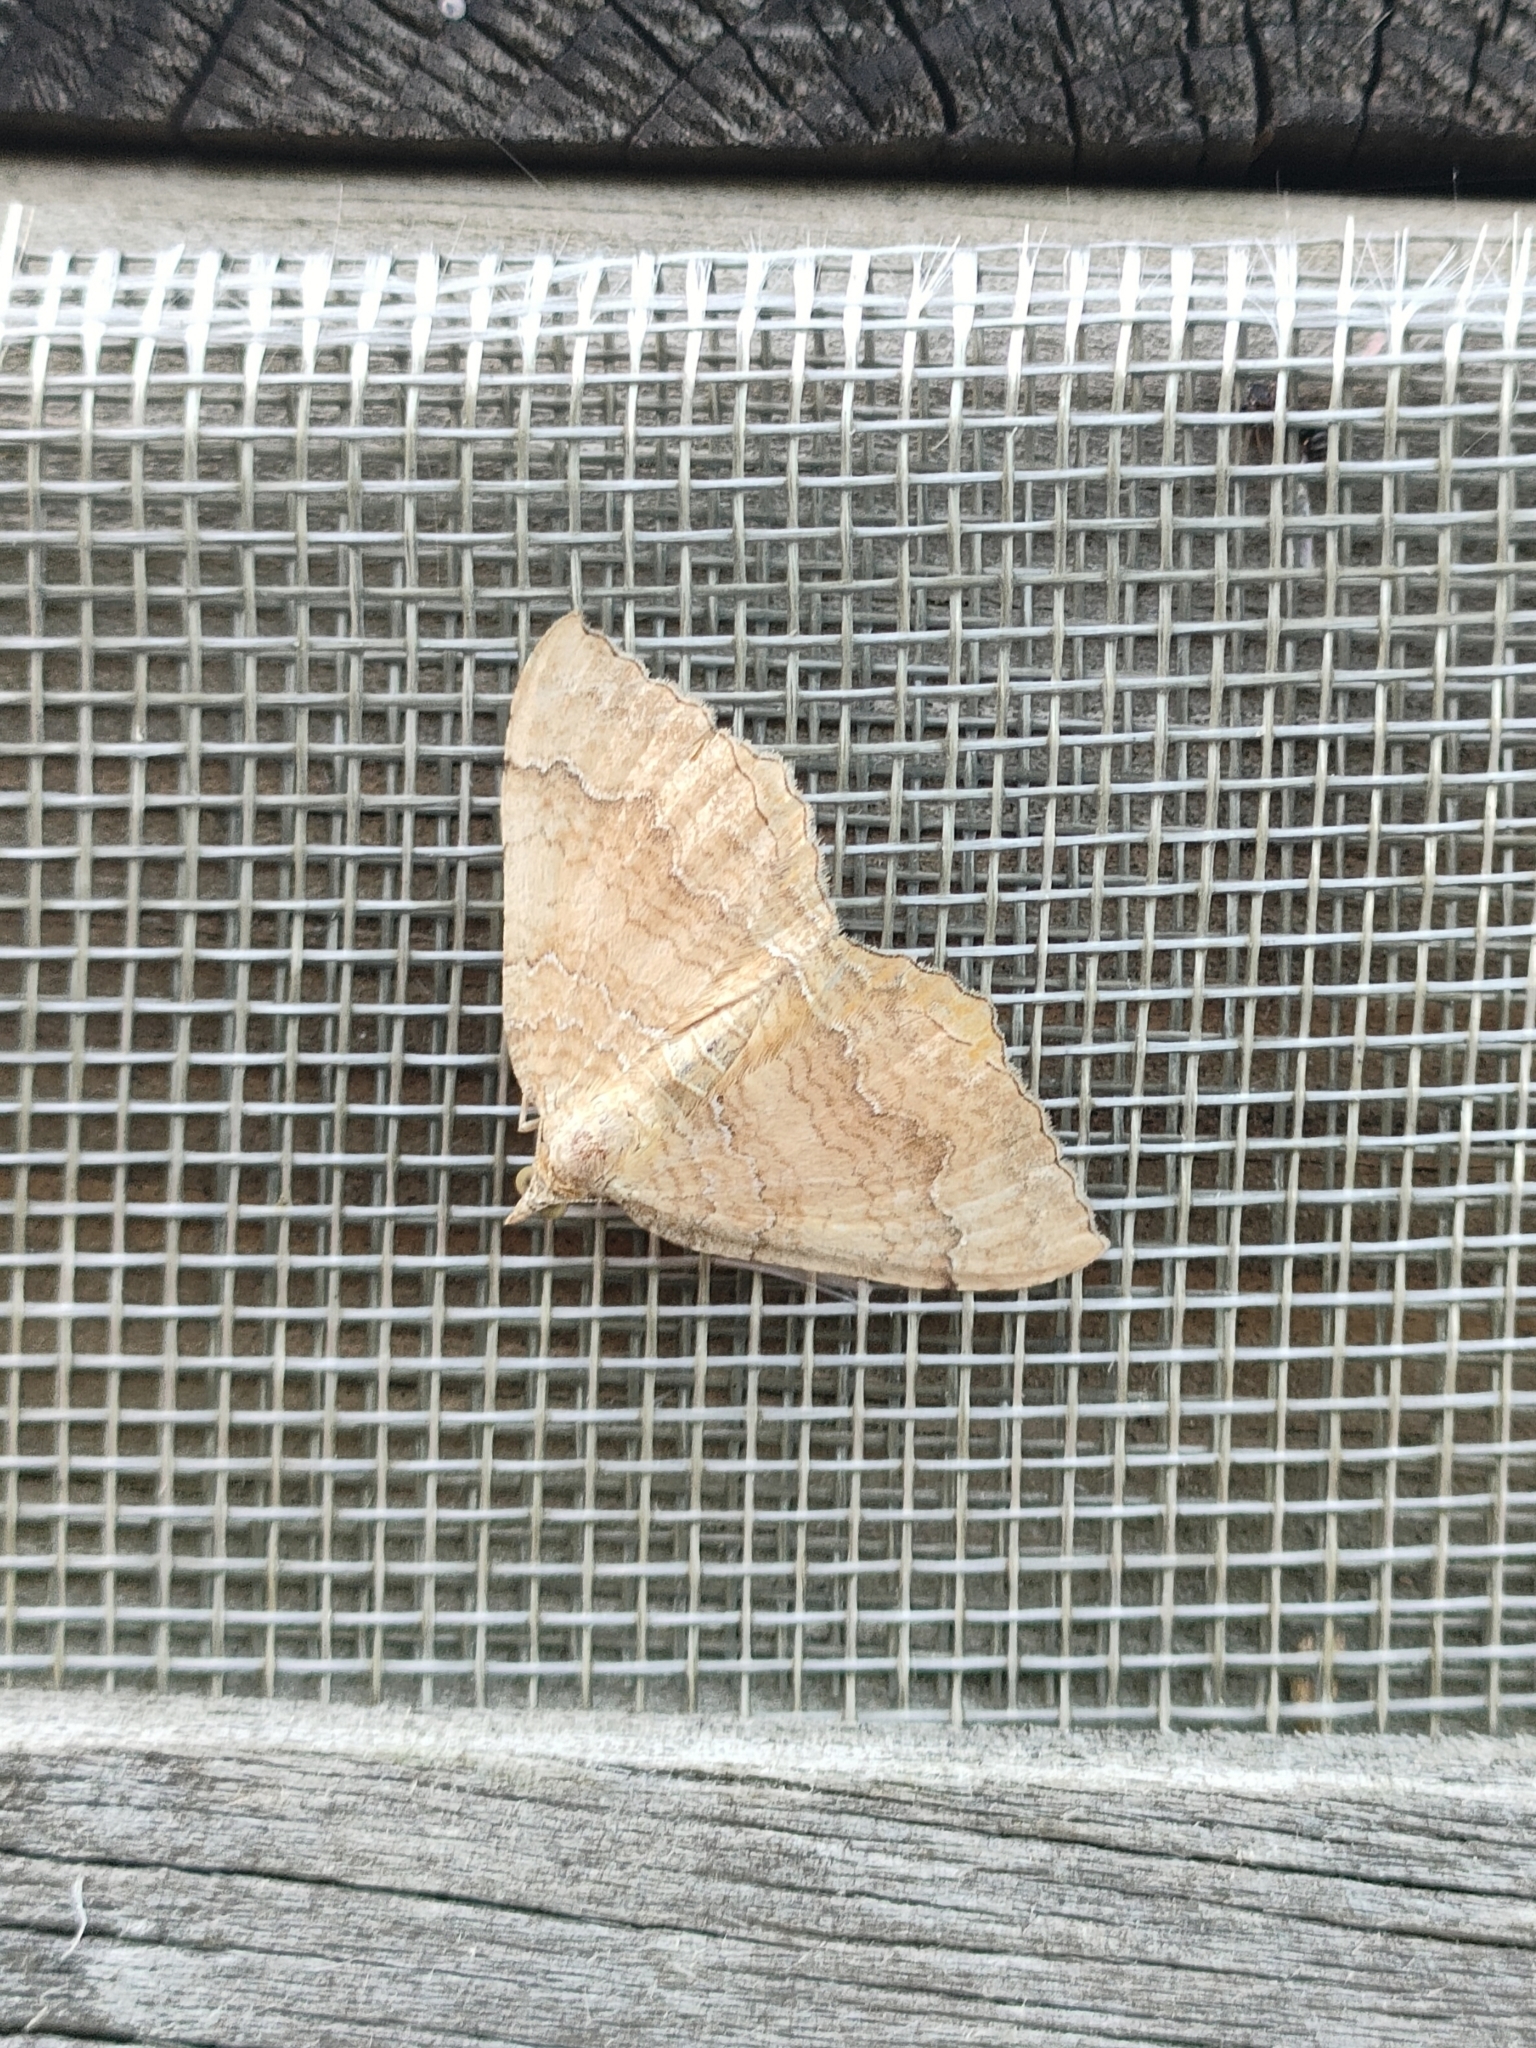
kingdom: Animalia
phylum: Arthropoda
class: Insecta
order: Lepidoptera
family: Geometridae
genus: Camptogramma
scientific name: Camptogramma bilineata
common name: Yellow shell
